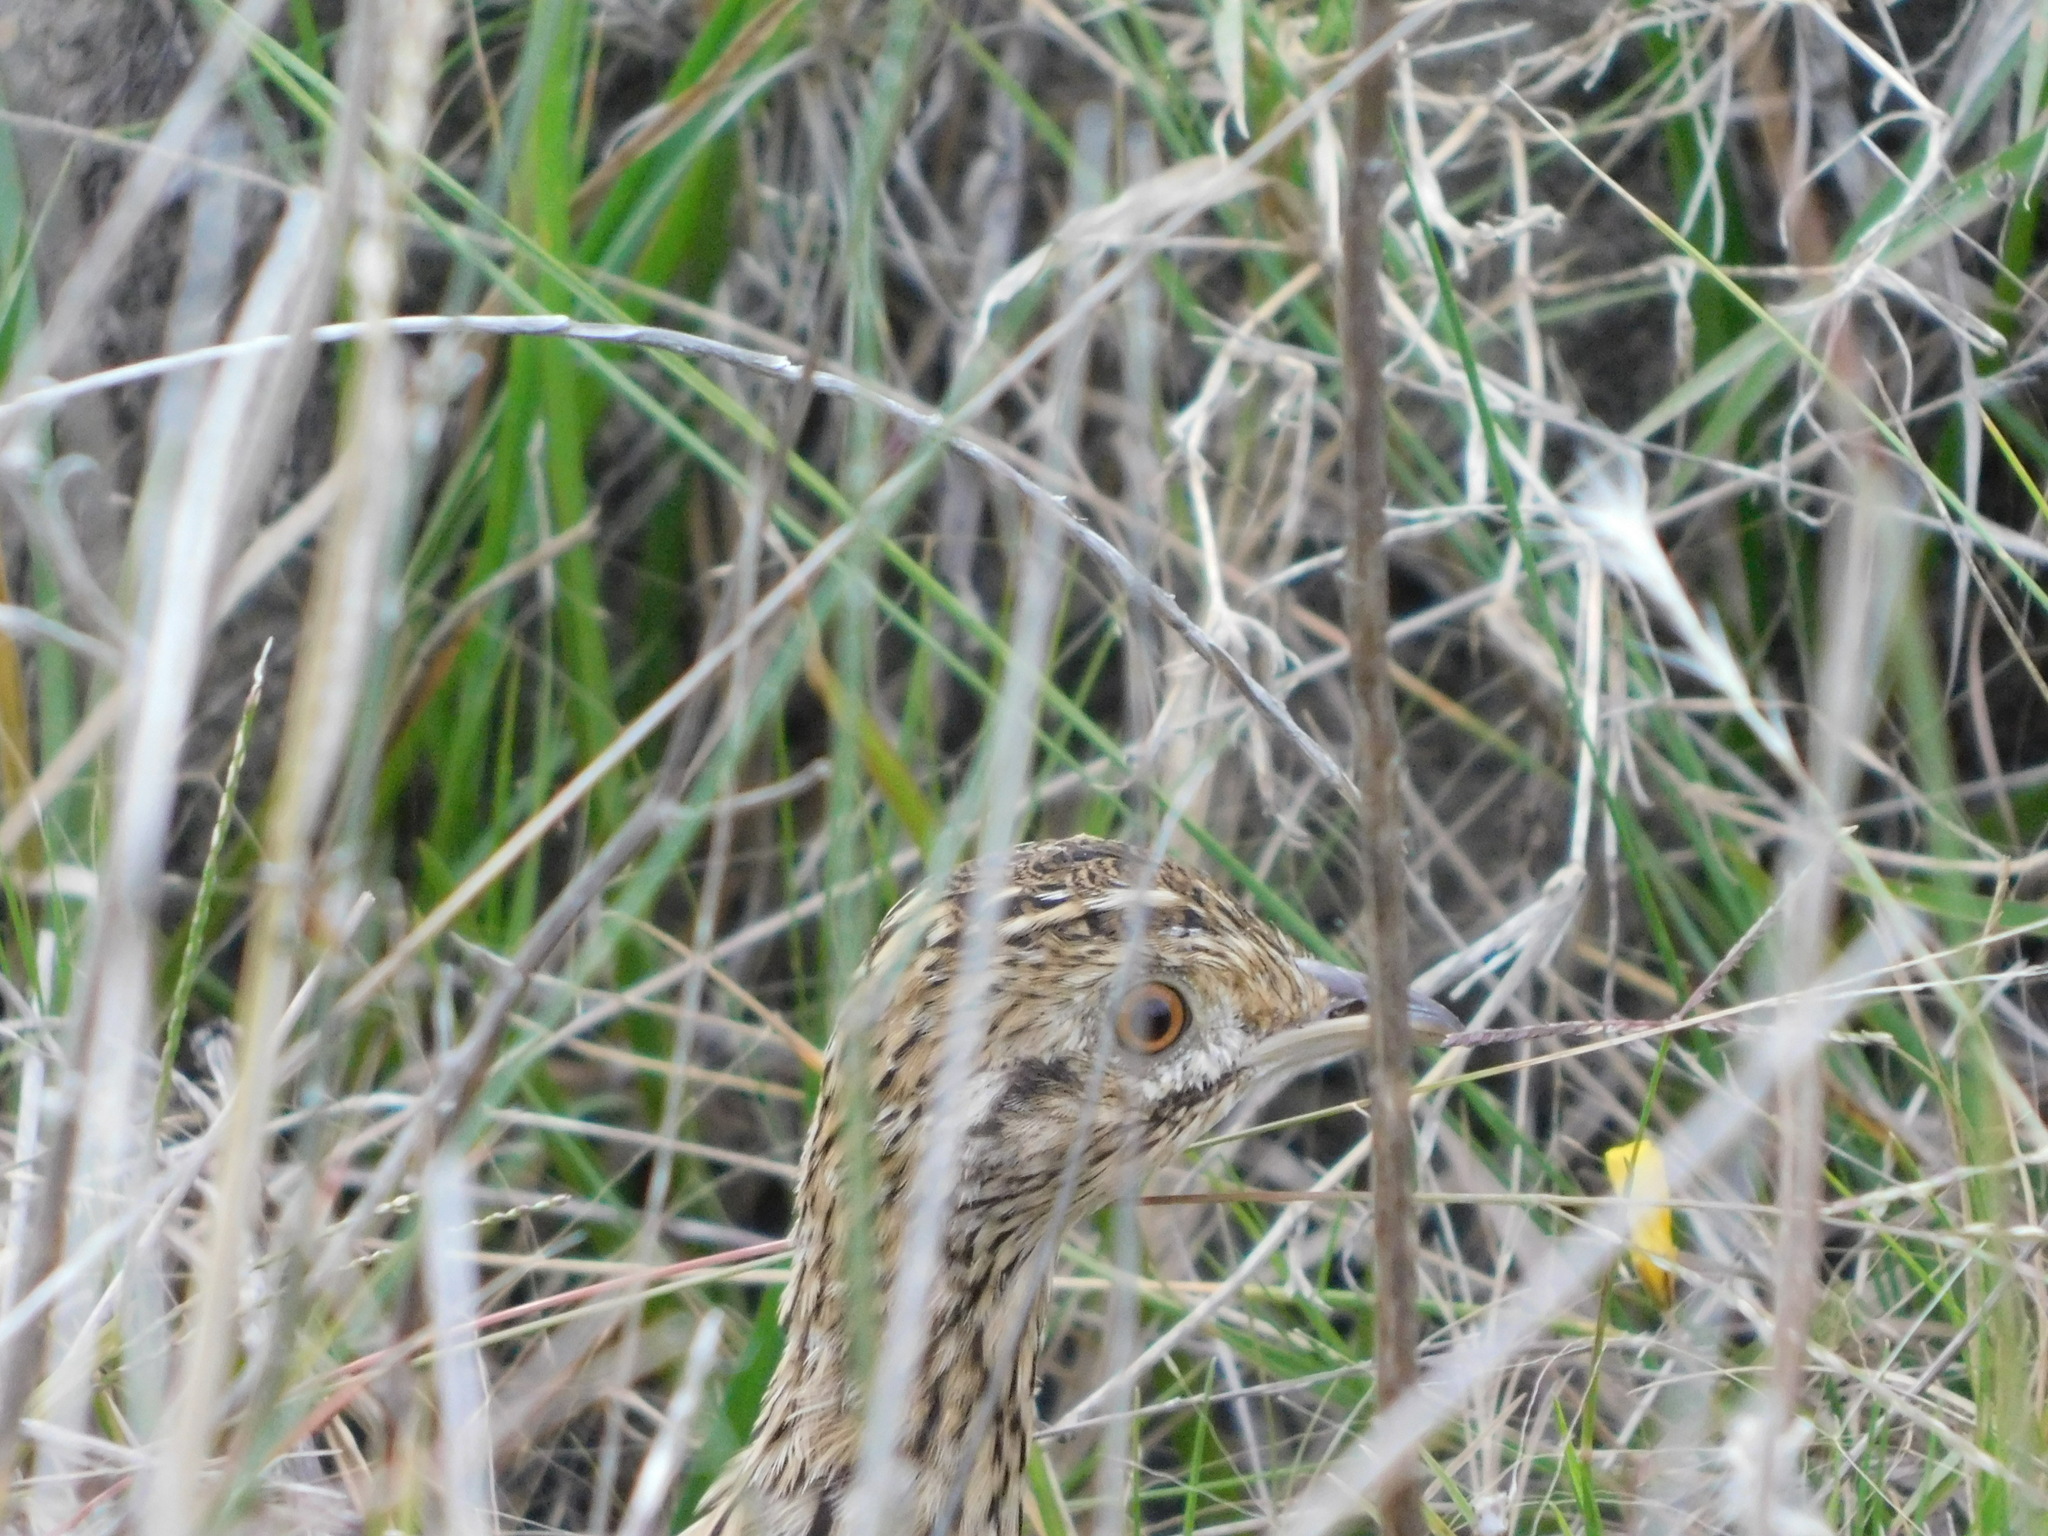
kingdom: Animalia
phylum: Chordata
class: Aves
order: Tinamiformes
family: Tinamidae
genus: Nothura
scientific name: Nothura maculosa
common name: Spotted nothura
